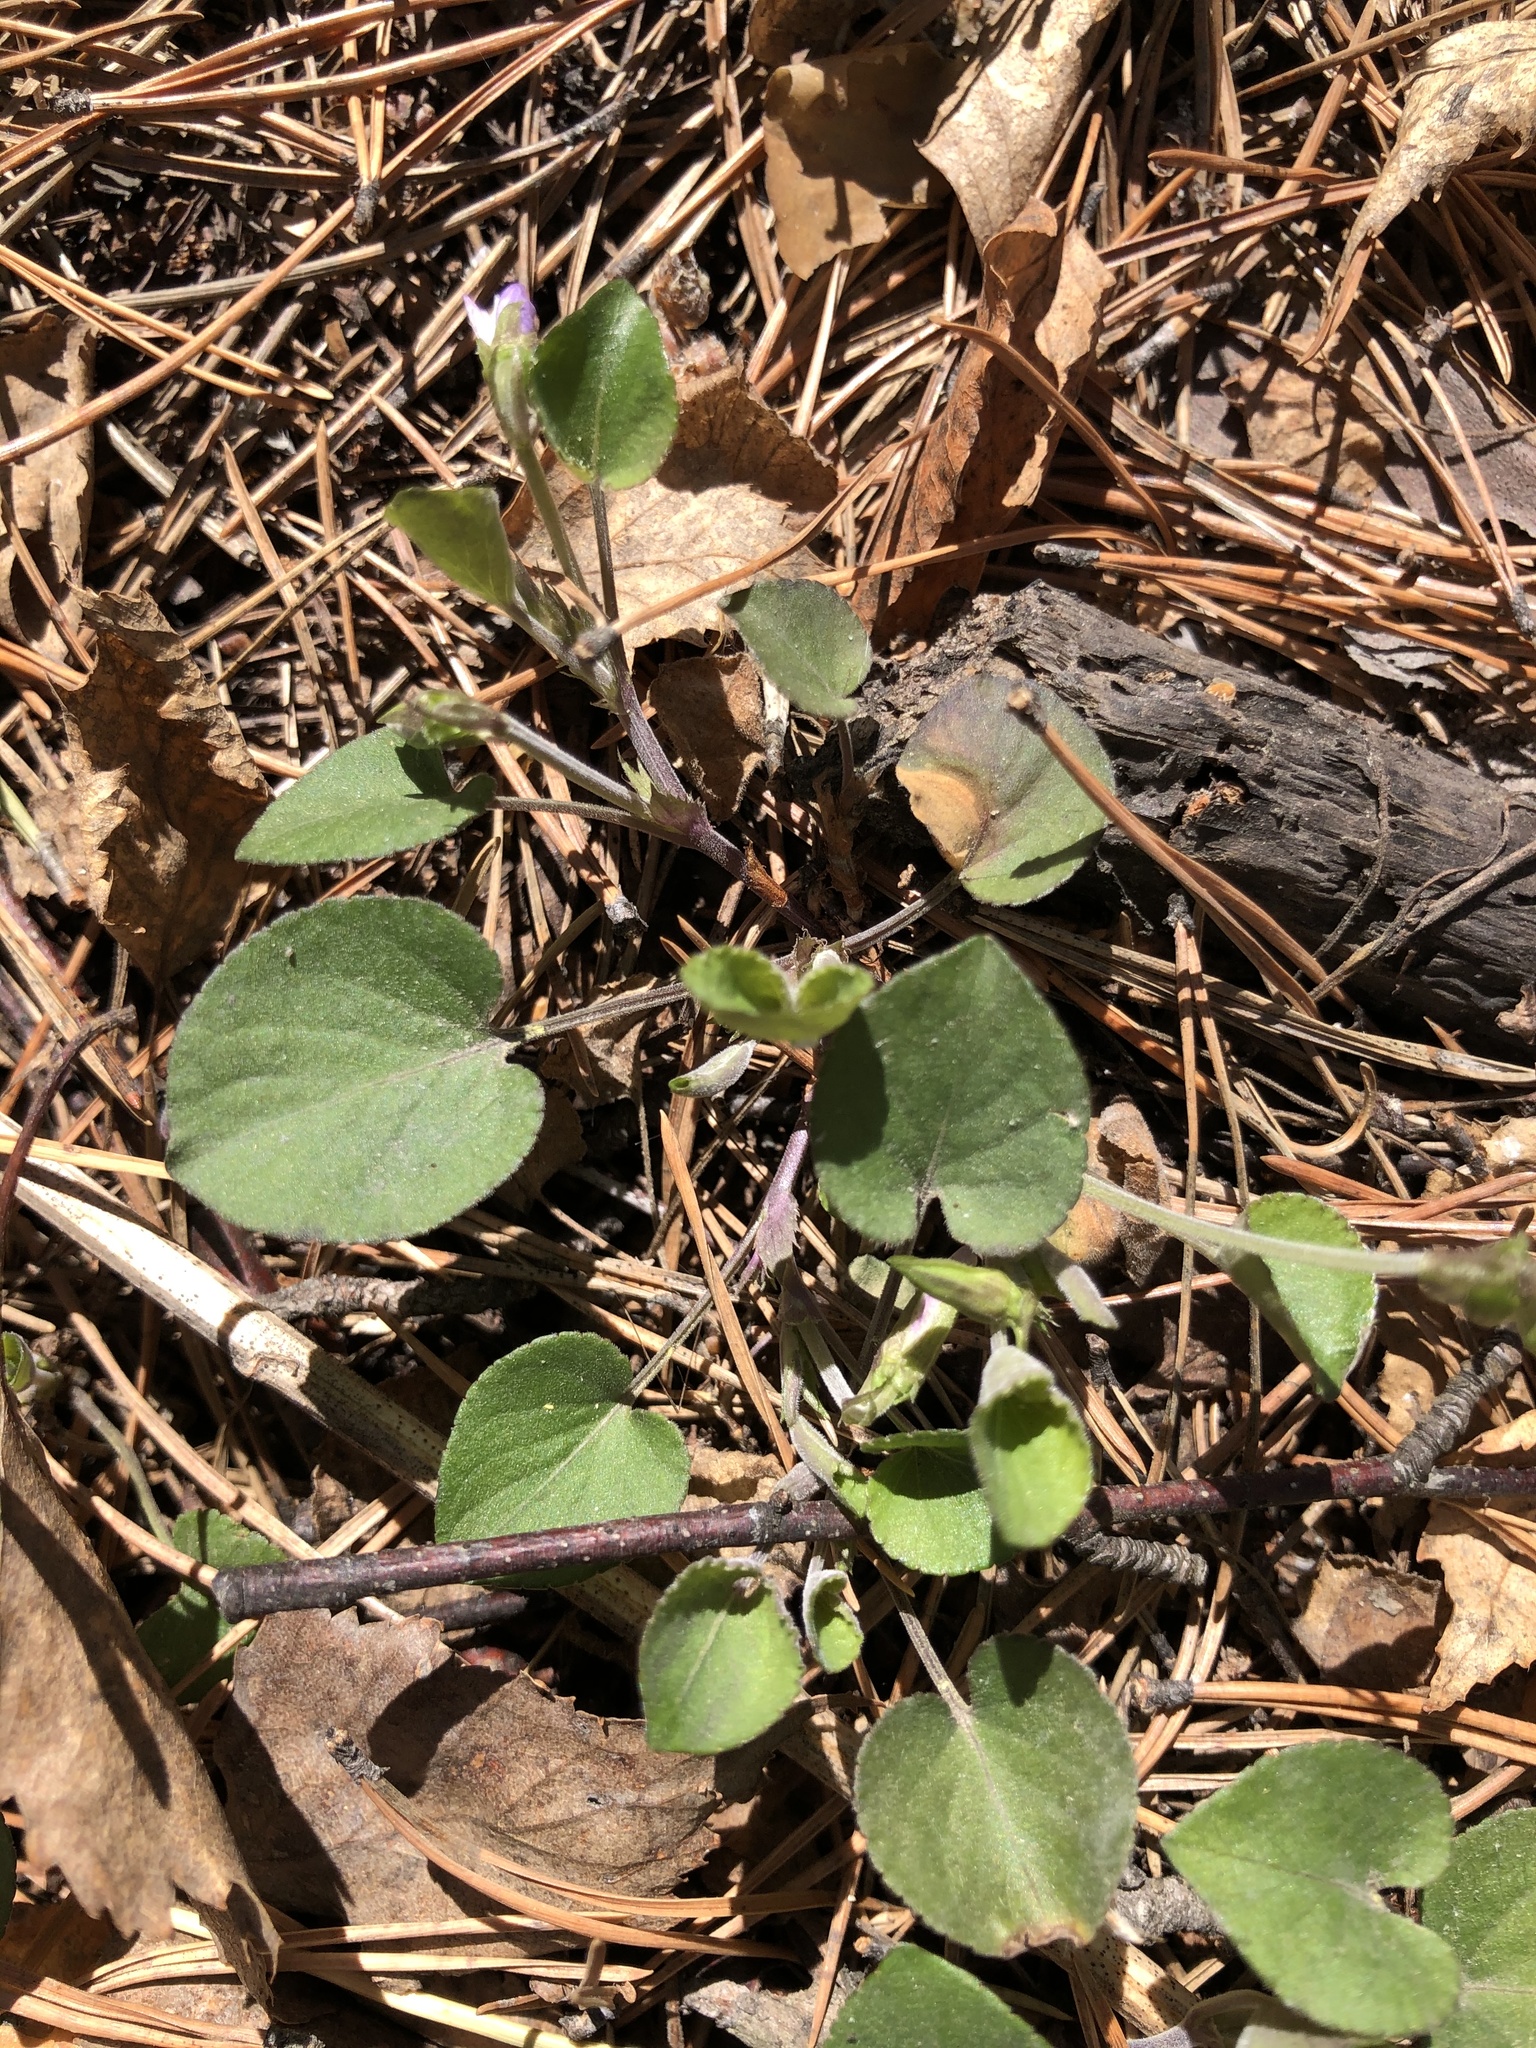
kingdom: Plantae
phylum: Tracheophyta
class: Magnoliopsida
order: Malpighiales
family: Violaceae
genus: Viola
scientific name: Viola rupestris
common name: Teesdale violet
